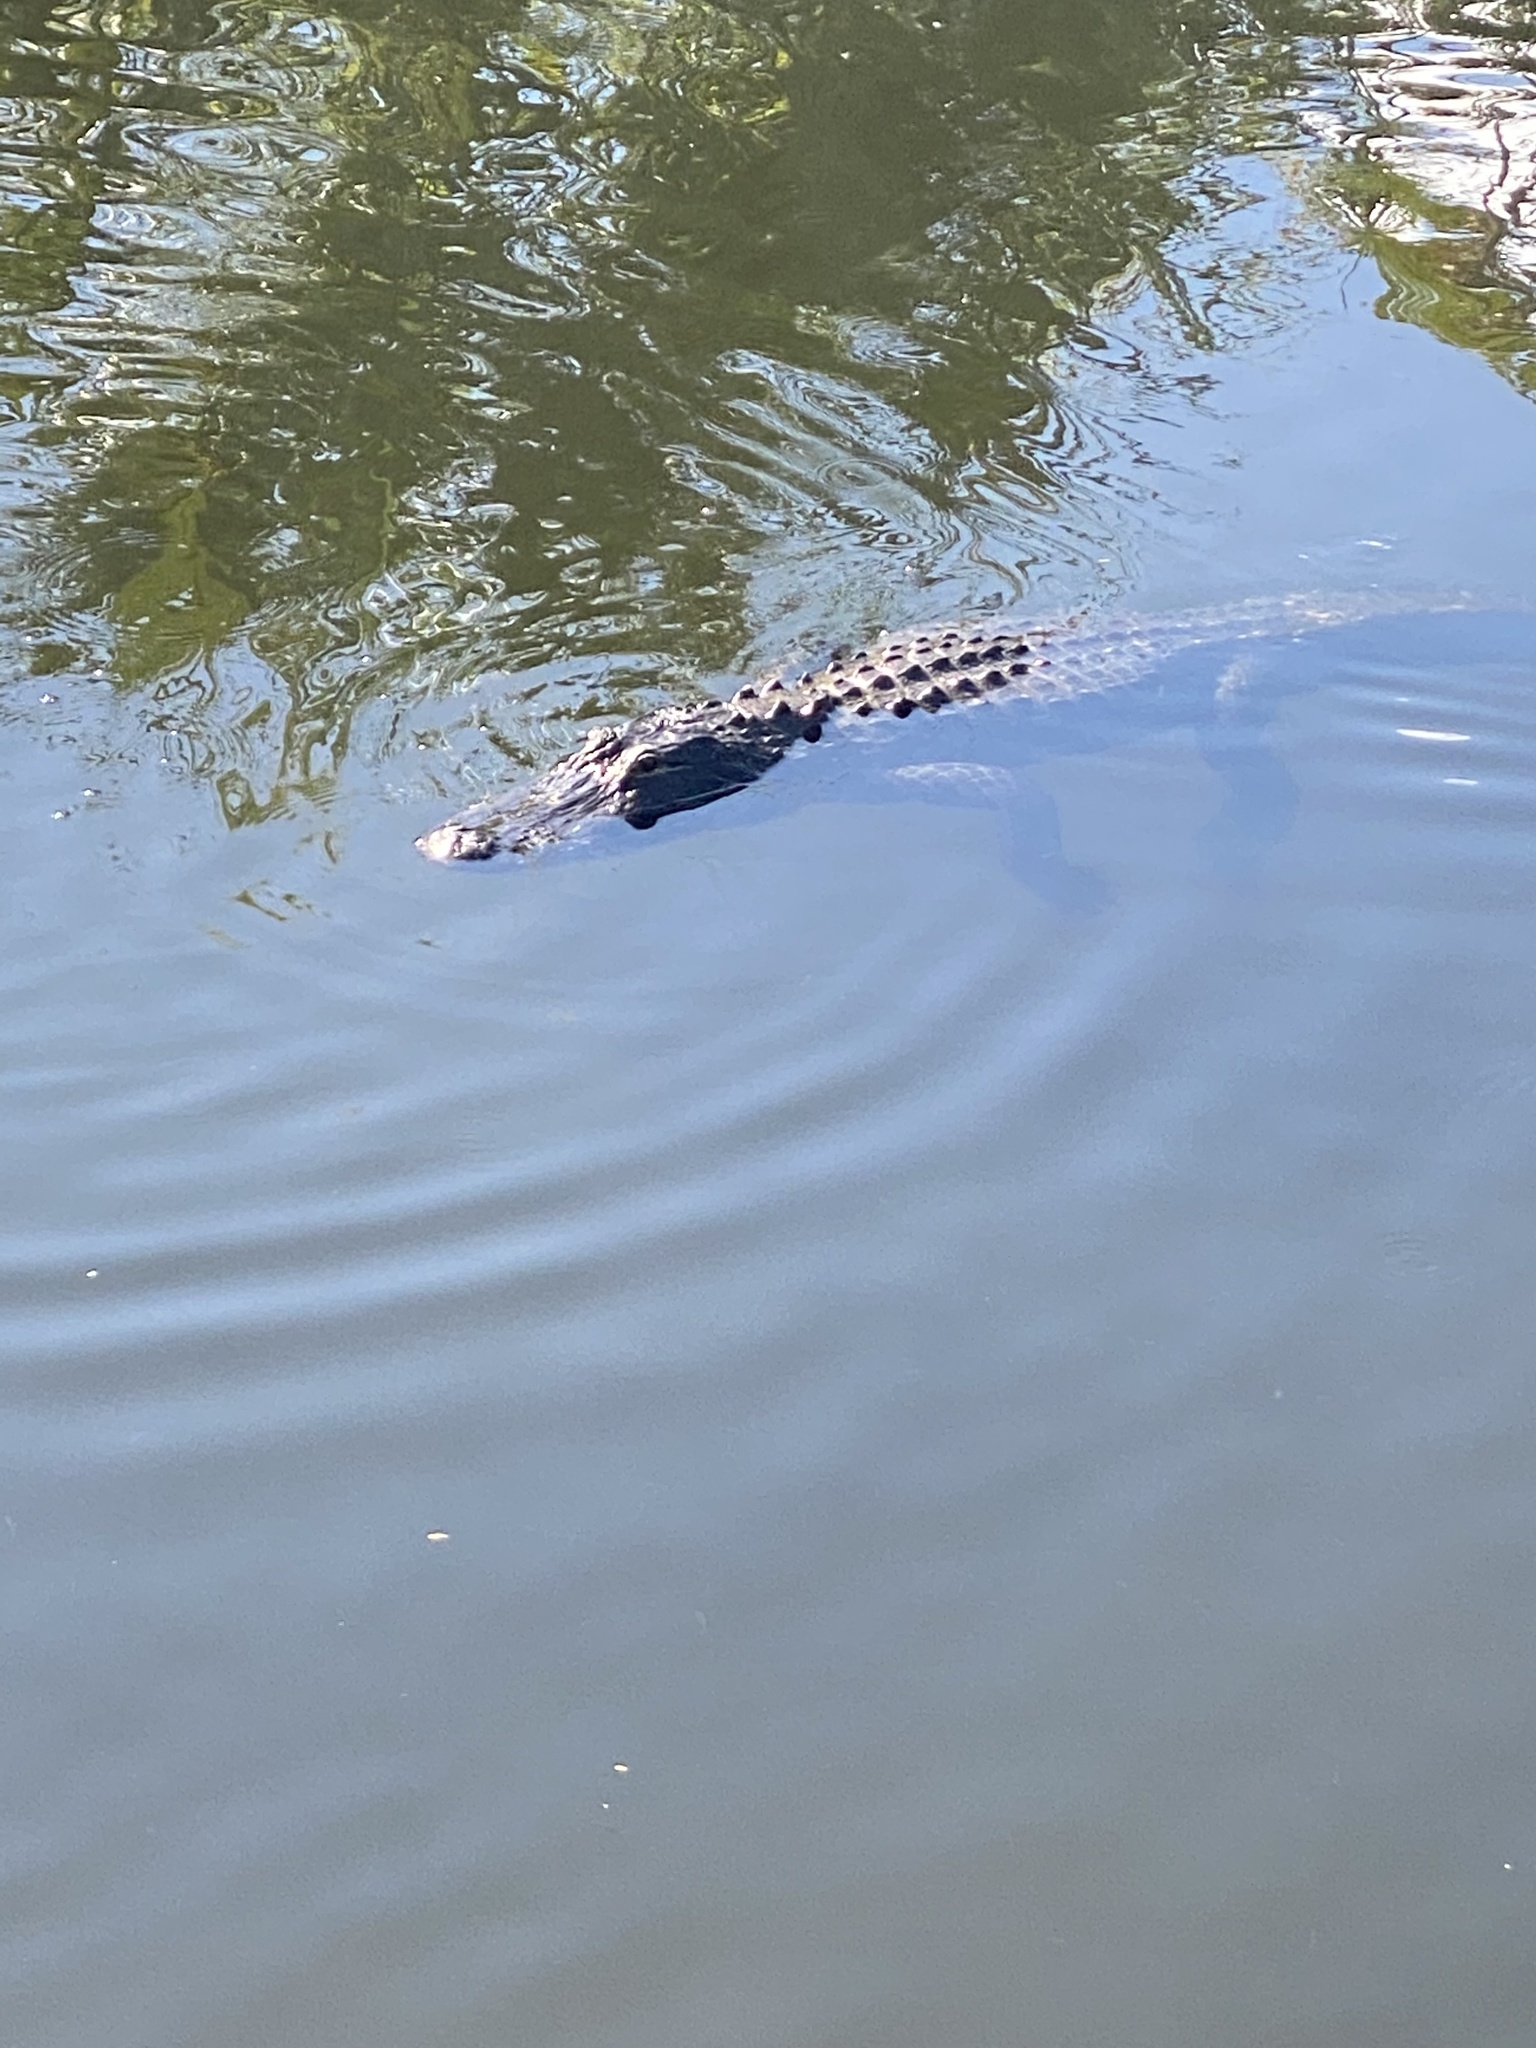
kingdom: Animalia
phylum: Chordata
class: Crocodylia
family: Alligatoridae
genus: Alligator
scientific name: Alligator mississippiensis
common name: American alligator
